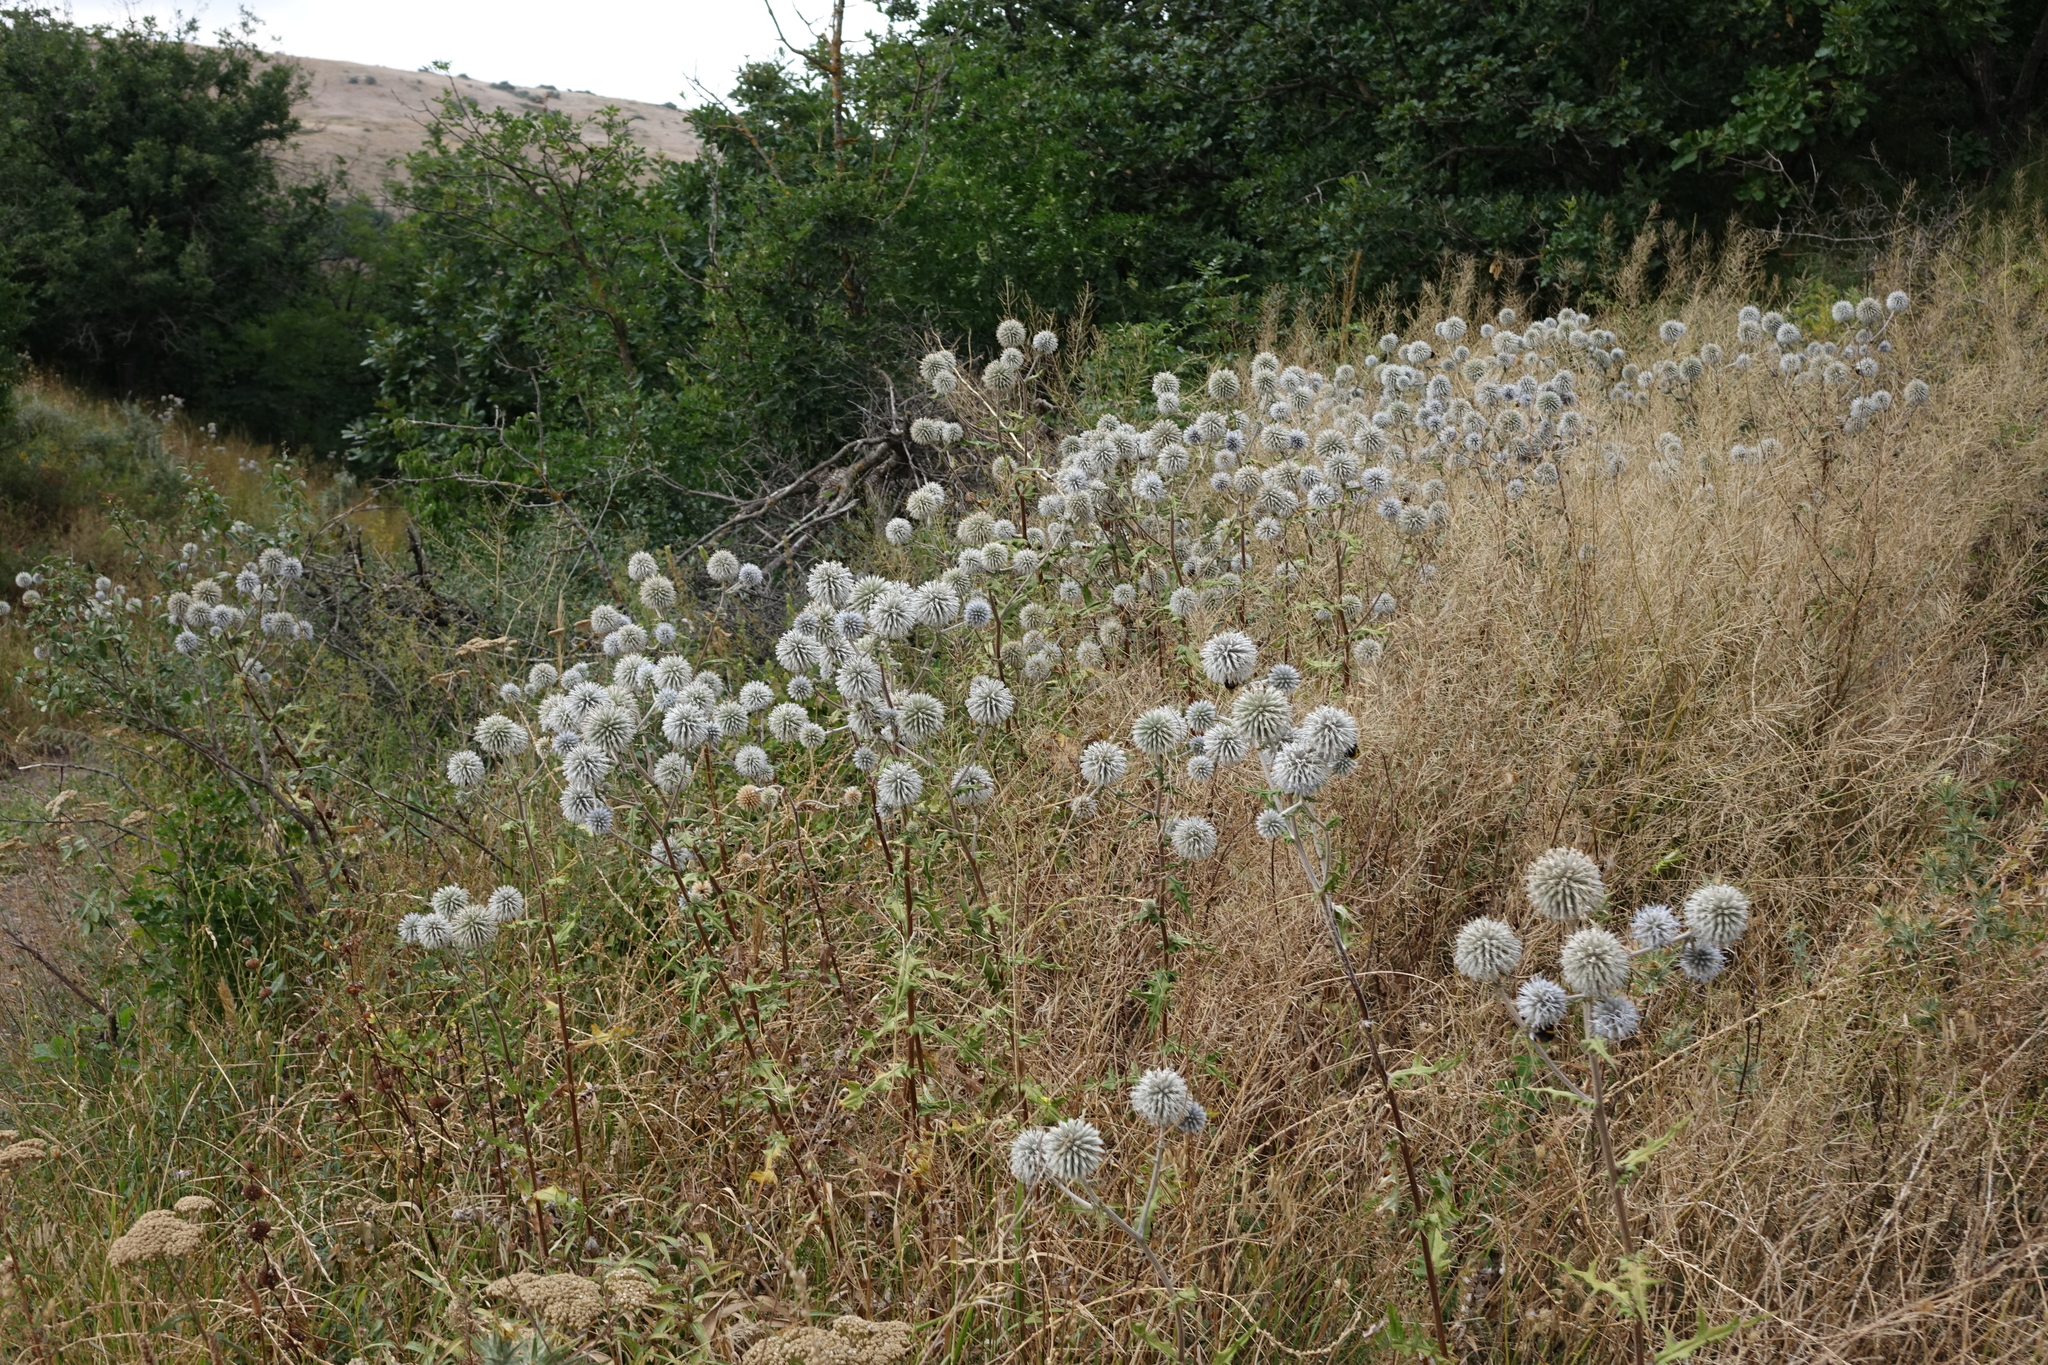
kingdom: Plantae
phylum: Tracheophyta
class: Magnoliopsida
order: Asterales
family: Asteraceae
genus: Echinops
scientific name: Echinops sphaerocephalus
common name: Glandular globe-thistle
